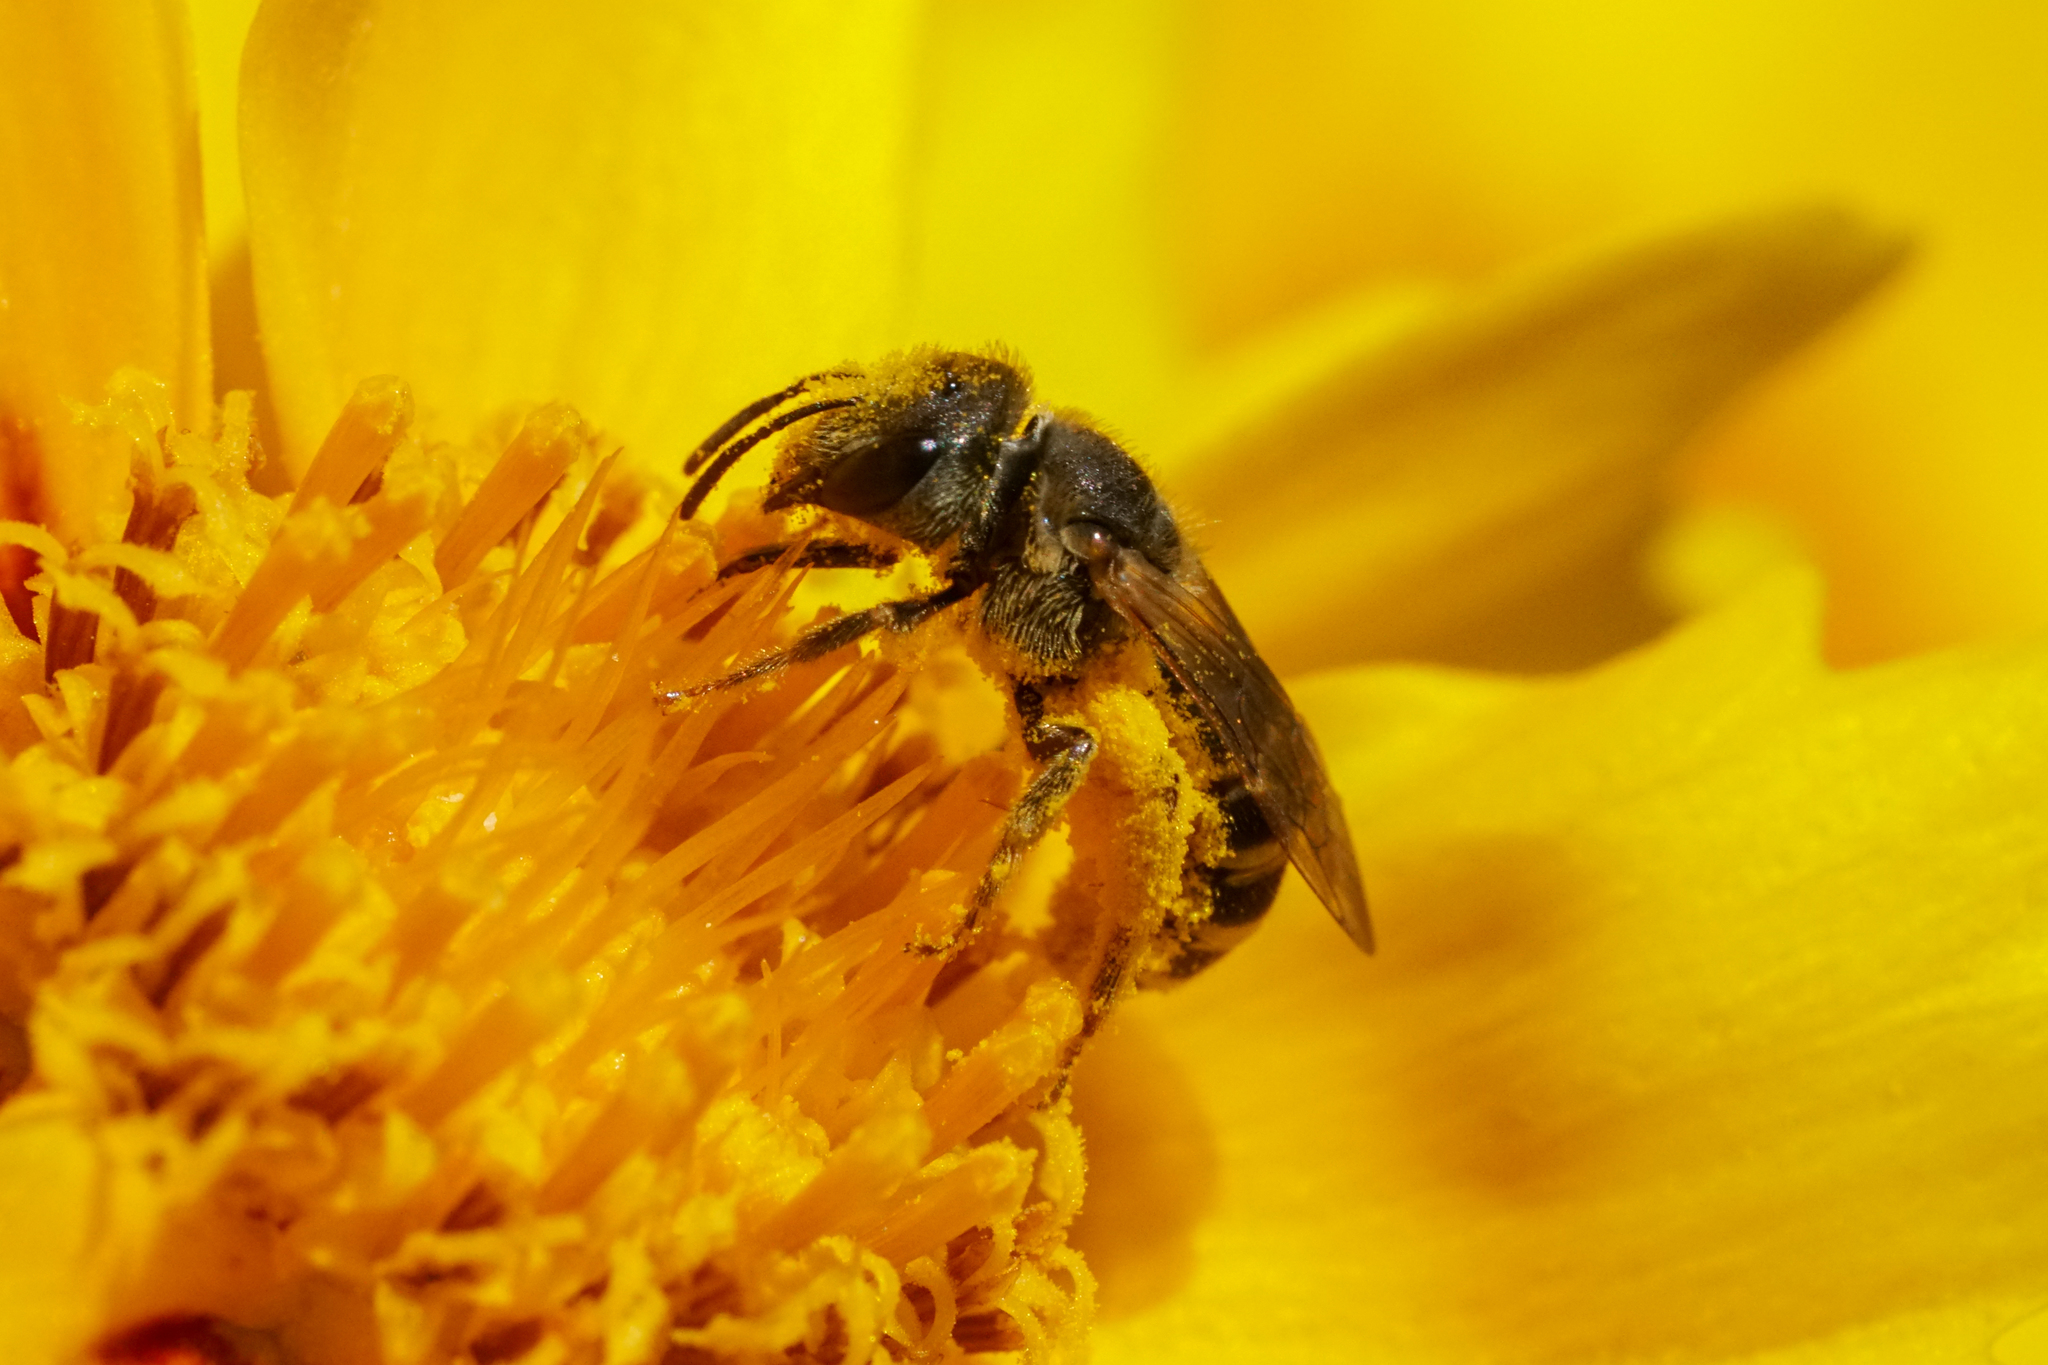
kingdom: Animalia
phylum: Arthropoda
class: Insecta
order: Hymenoptera
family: Halictidae
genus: Halictus
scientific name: Halictus ligatus
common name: Ligated furrow bee
